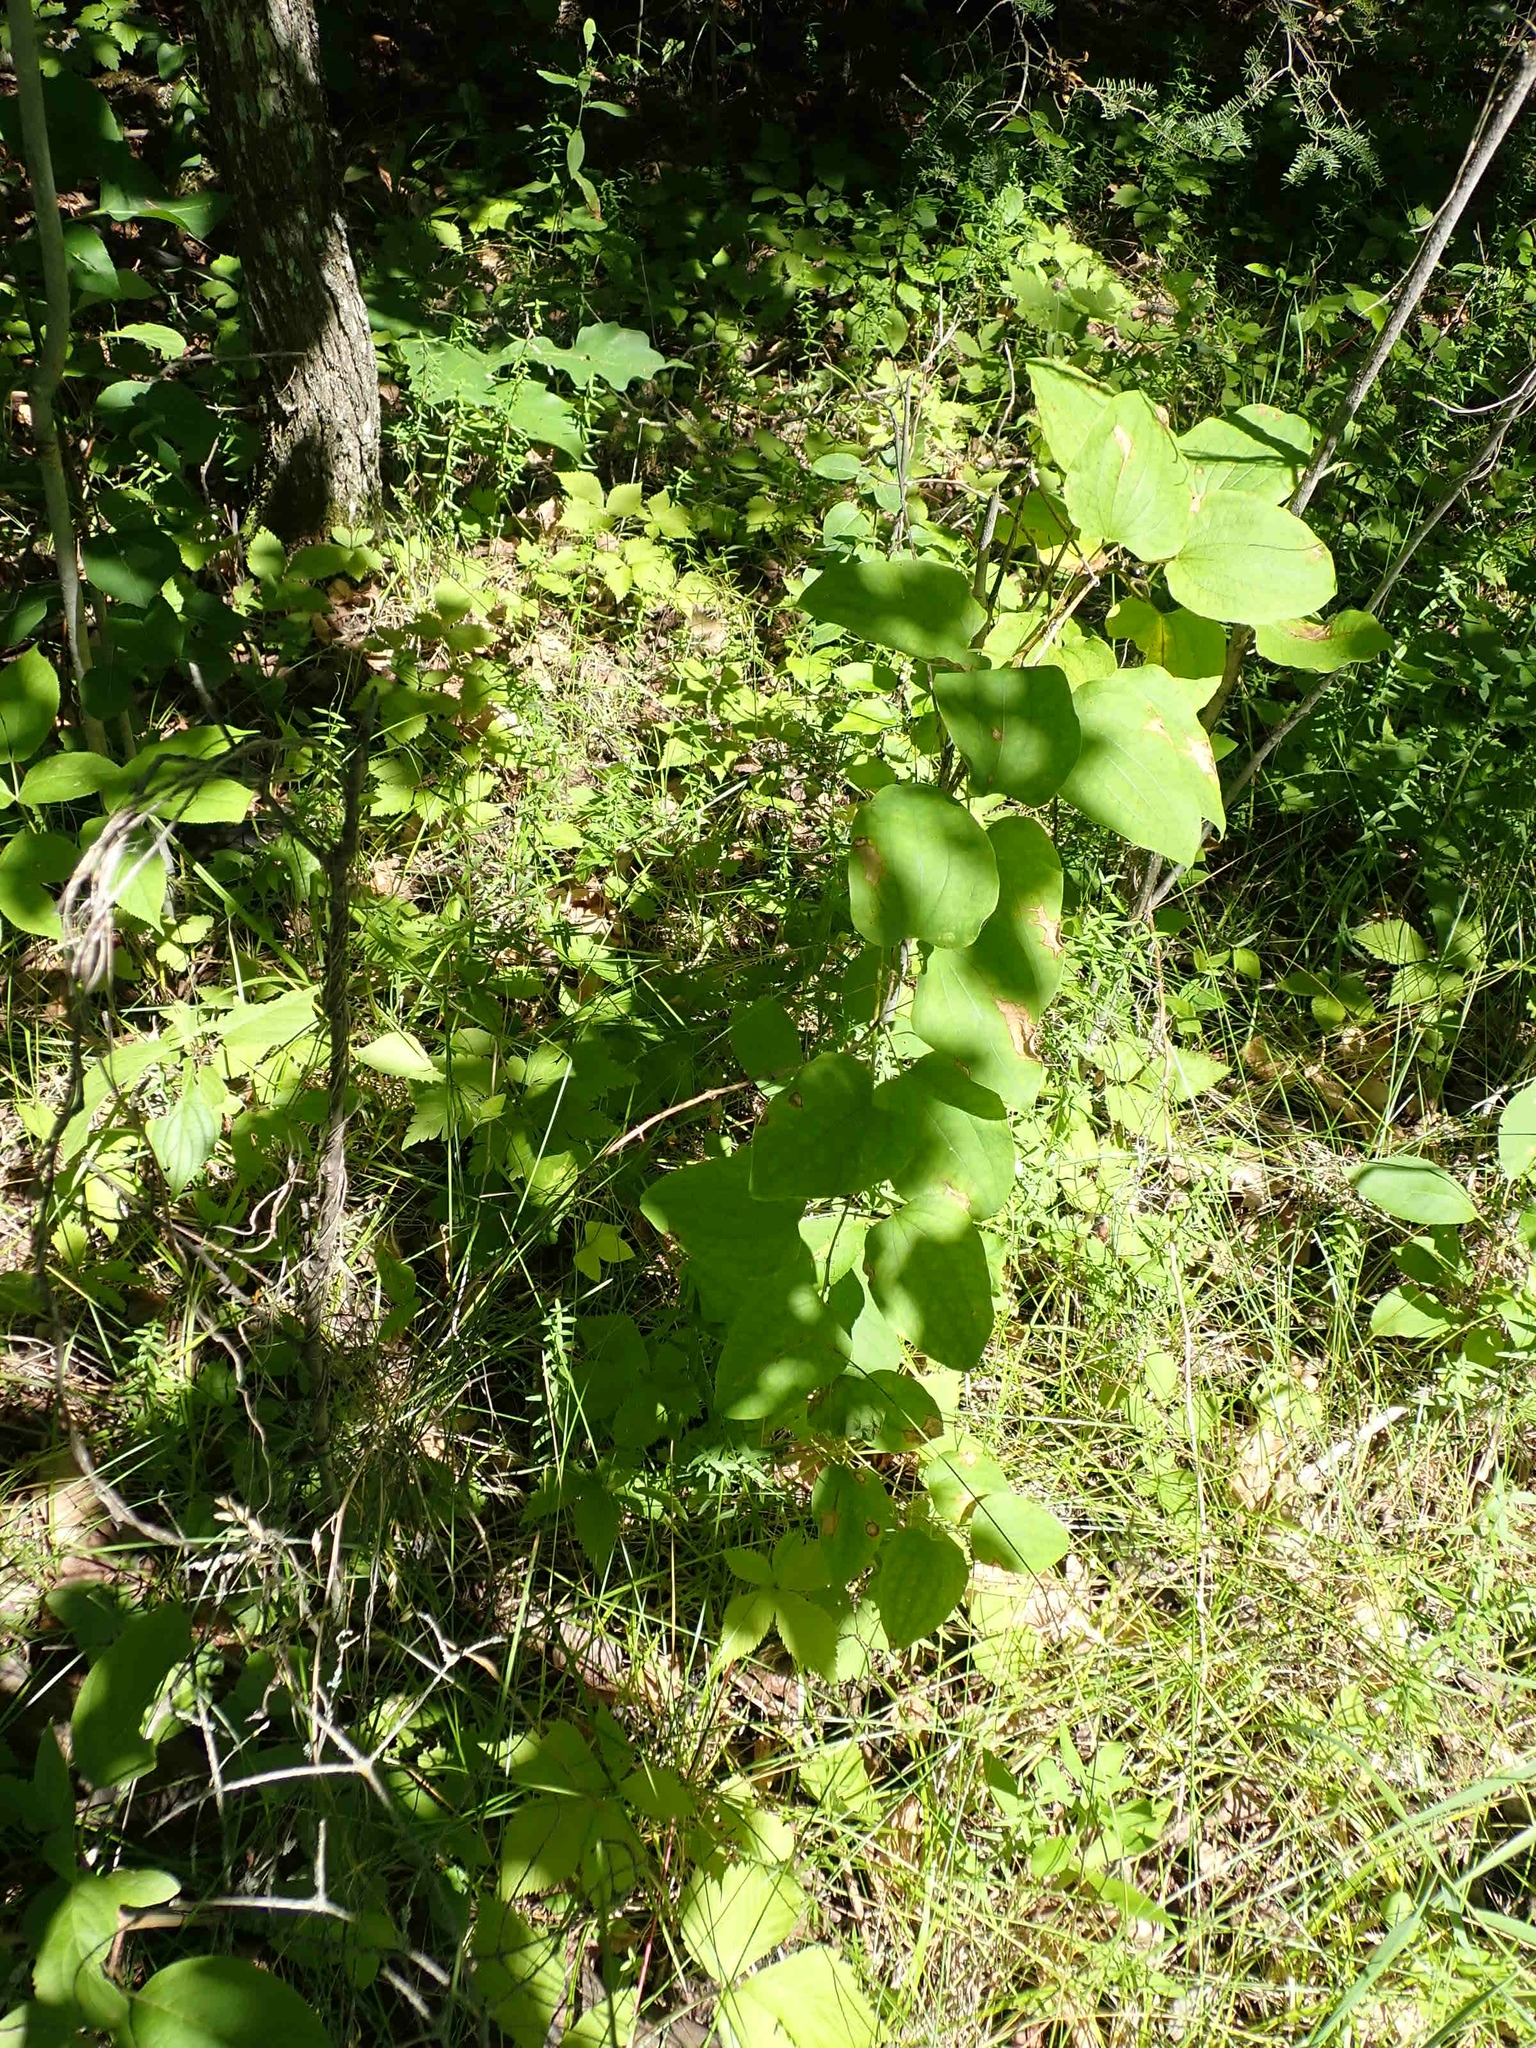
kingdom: Plantae
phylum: Tracheophyta
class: Liliopsida
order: Liliales
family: Smilacaceae
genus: Smilax
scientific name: Smilax lasioneura
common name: Blue ridge carrionflower
